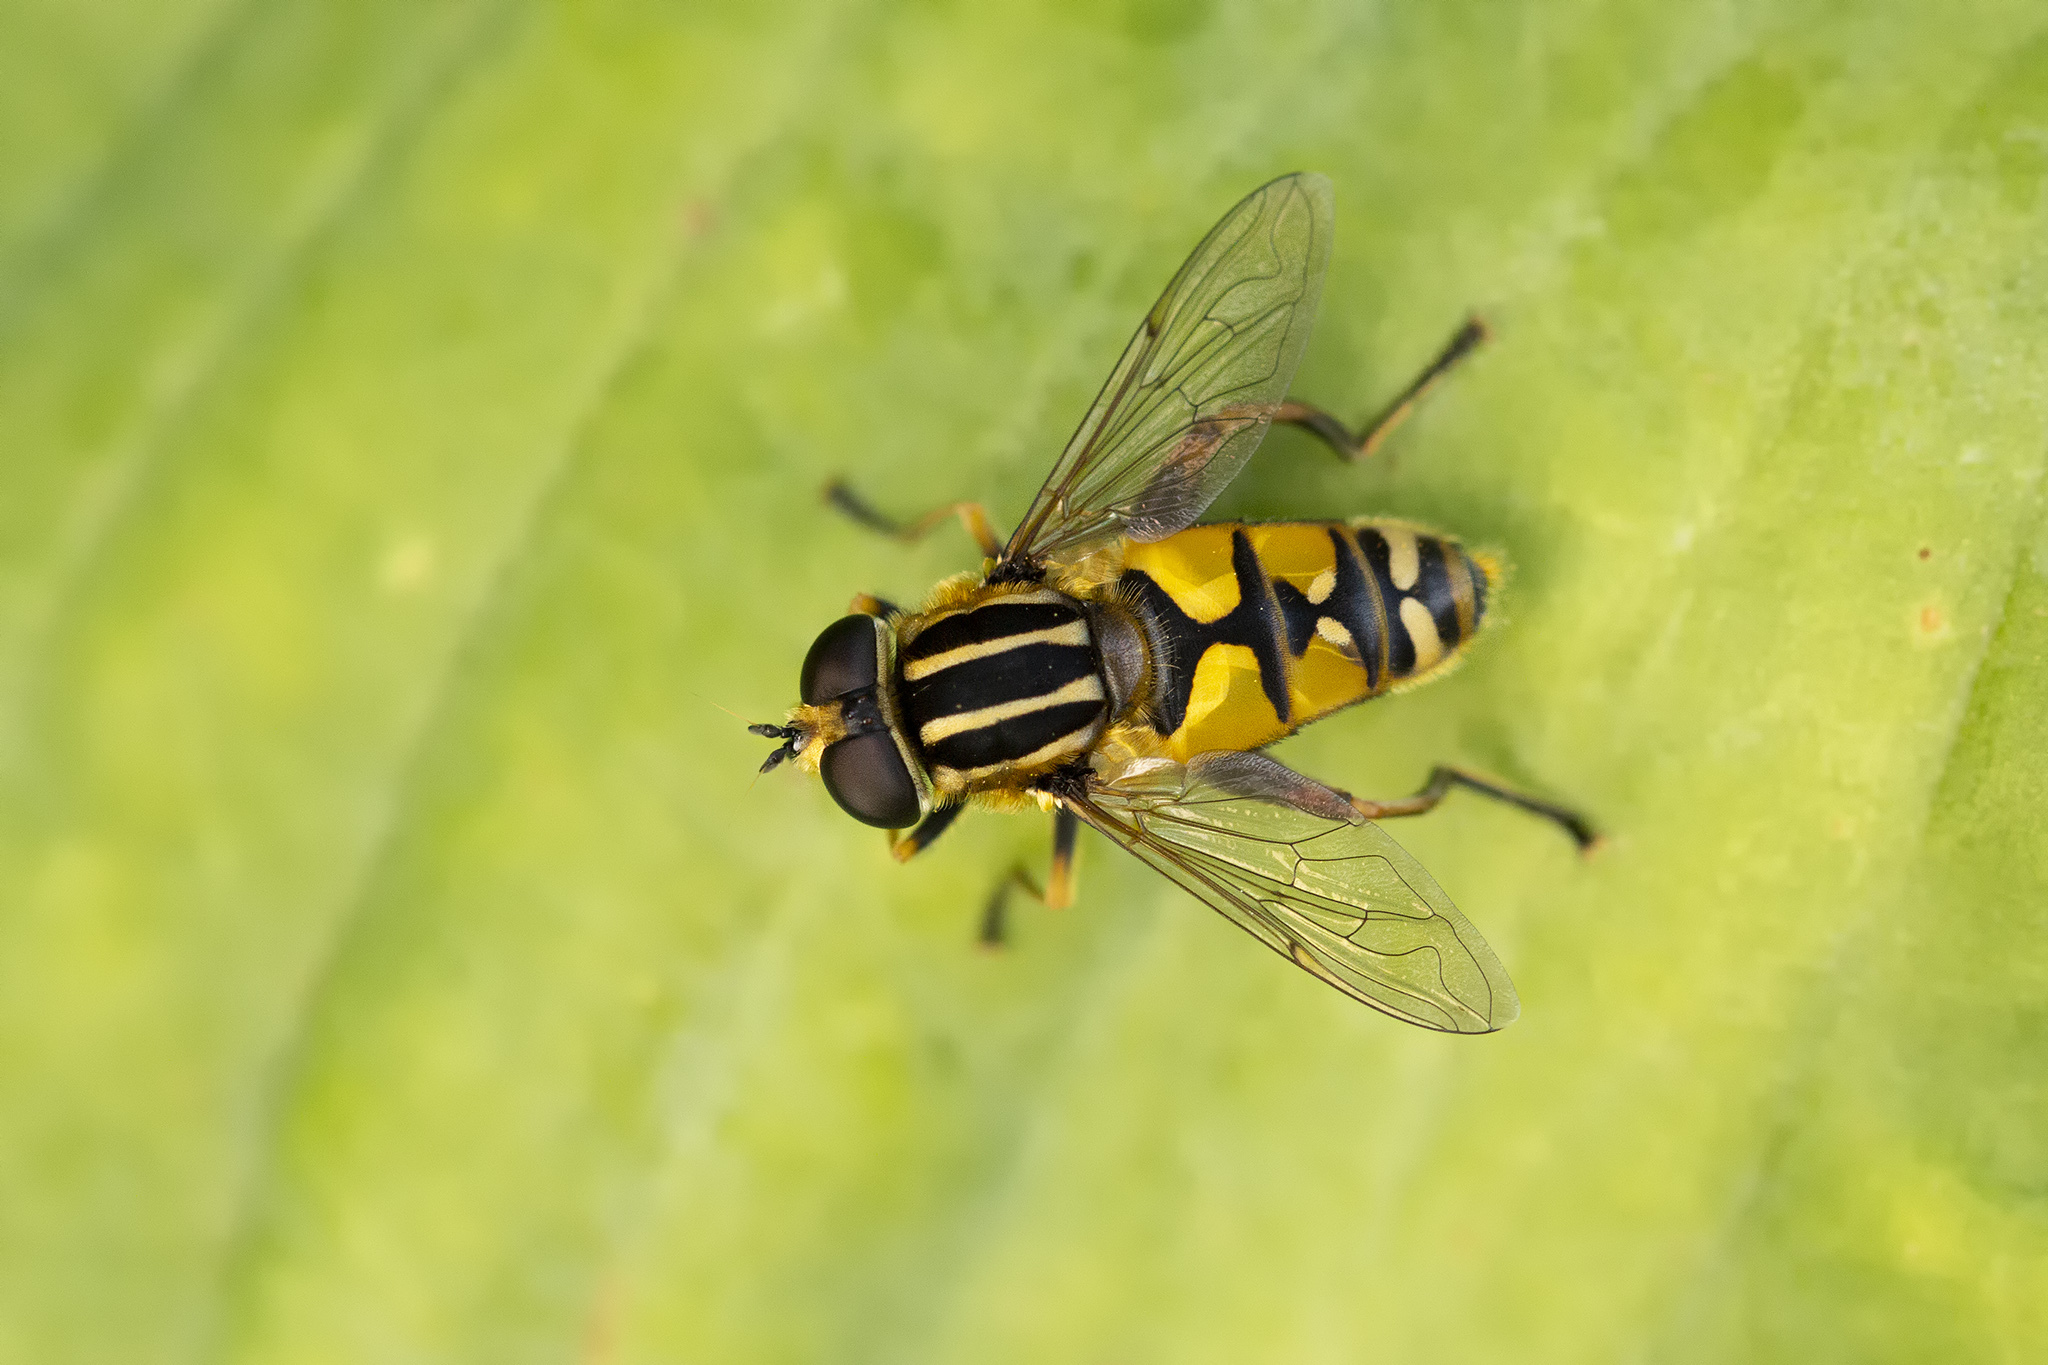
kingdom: Animalia
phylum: Arthropoda
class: Insecta
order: Diptera
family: Syrphidae
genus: Helophilus
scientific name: Helophilus pendulus
